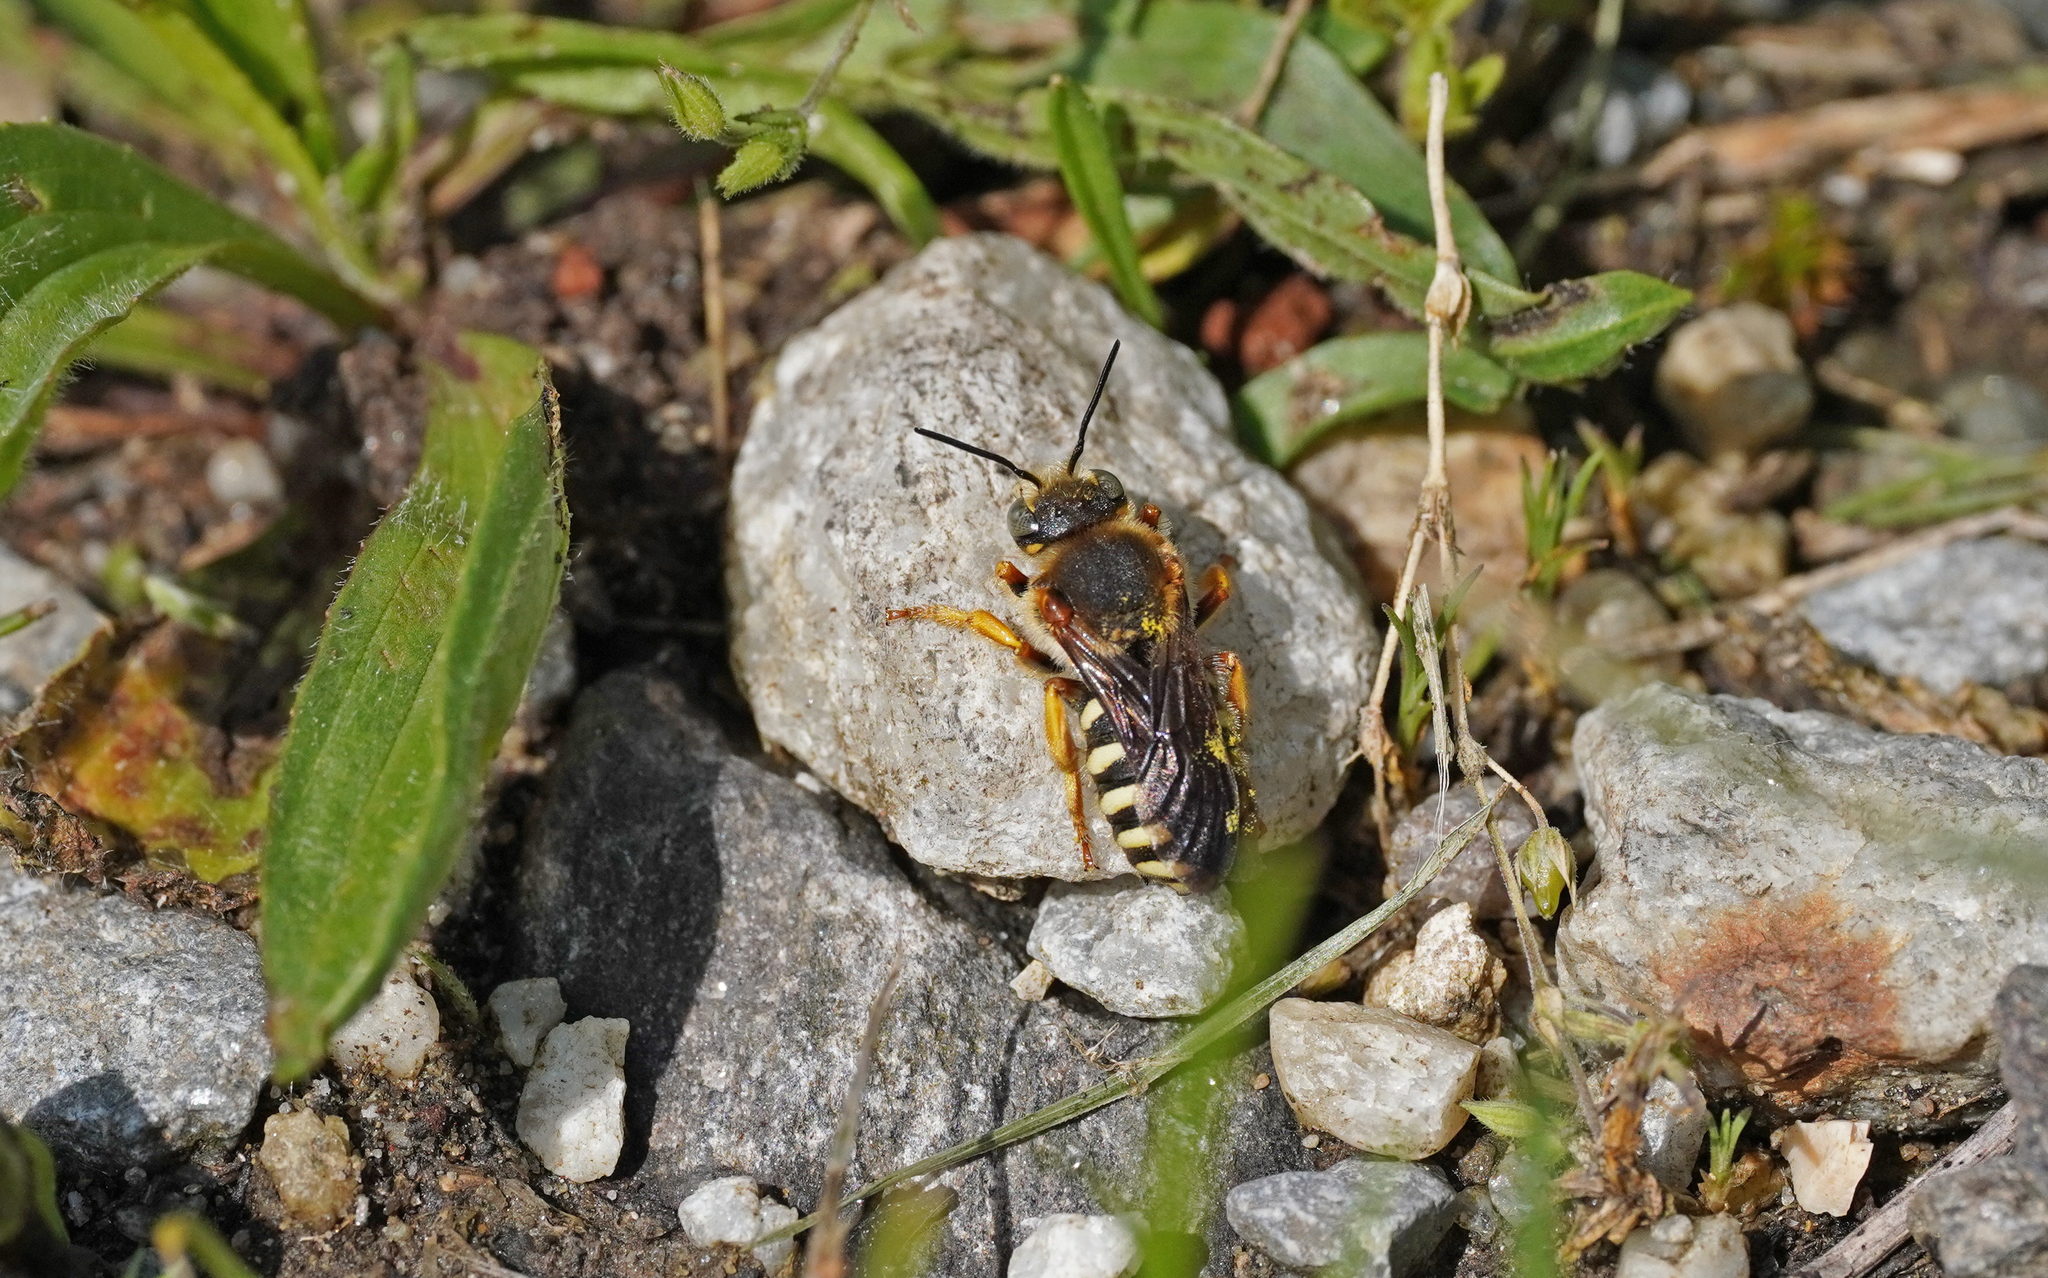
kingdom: Animalia
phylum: Arthropoda
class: Insecta
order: Hymenoptera
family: Megachilidae
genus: Rhodanthidium
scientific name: Rhodanthidium septemdentatum
